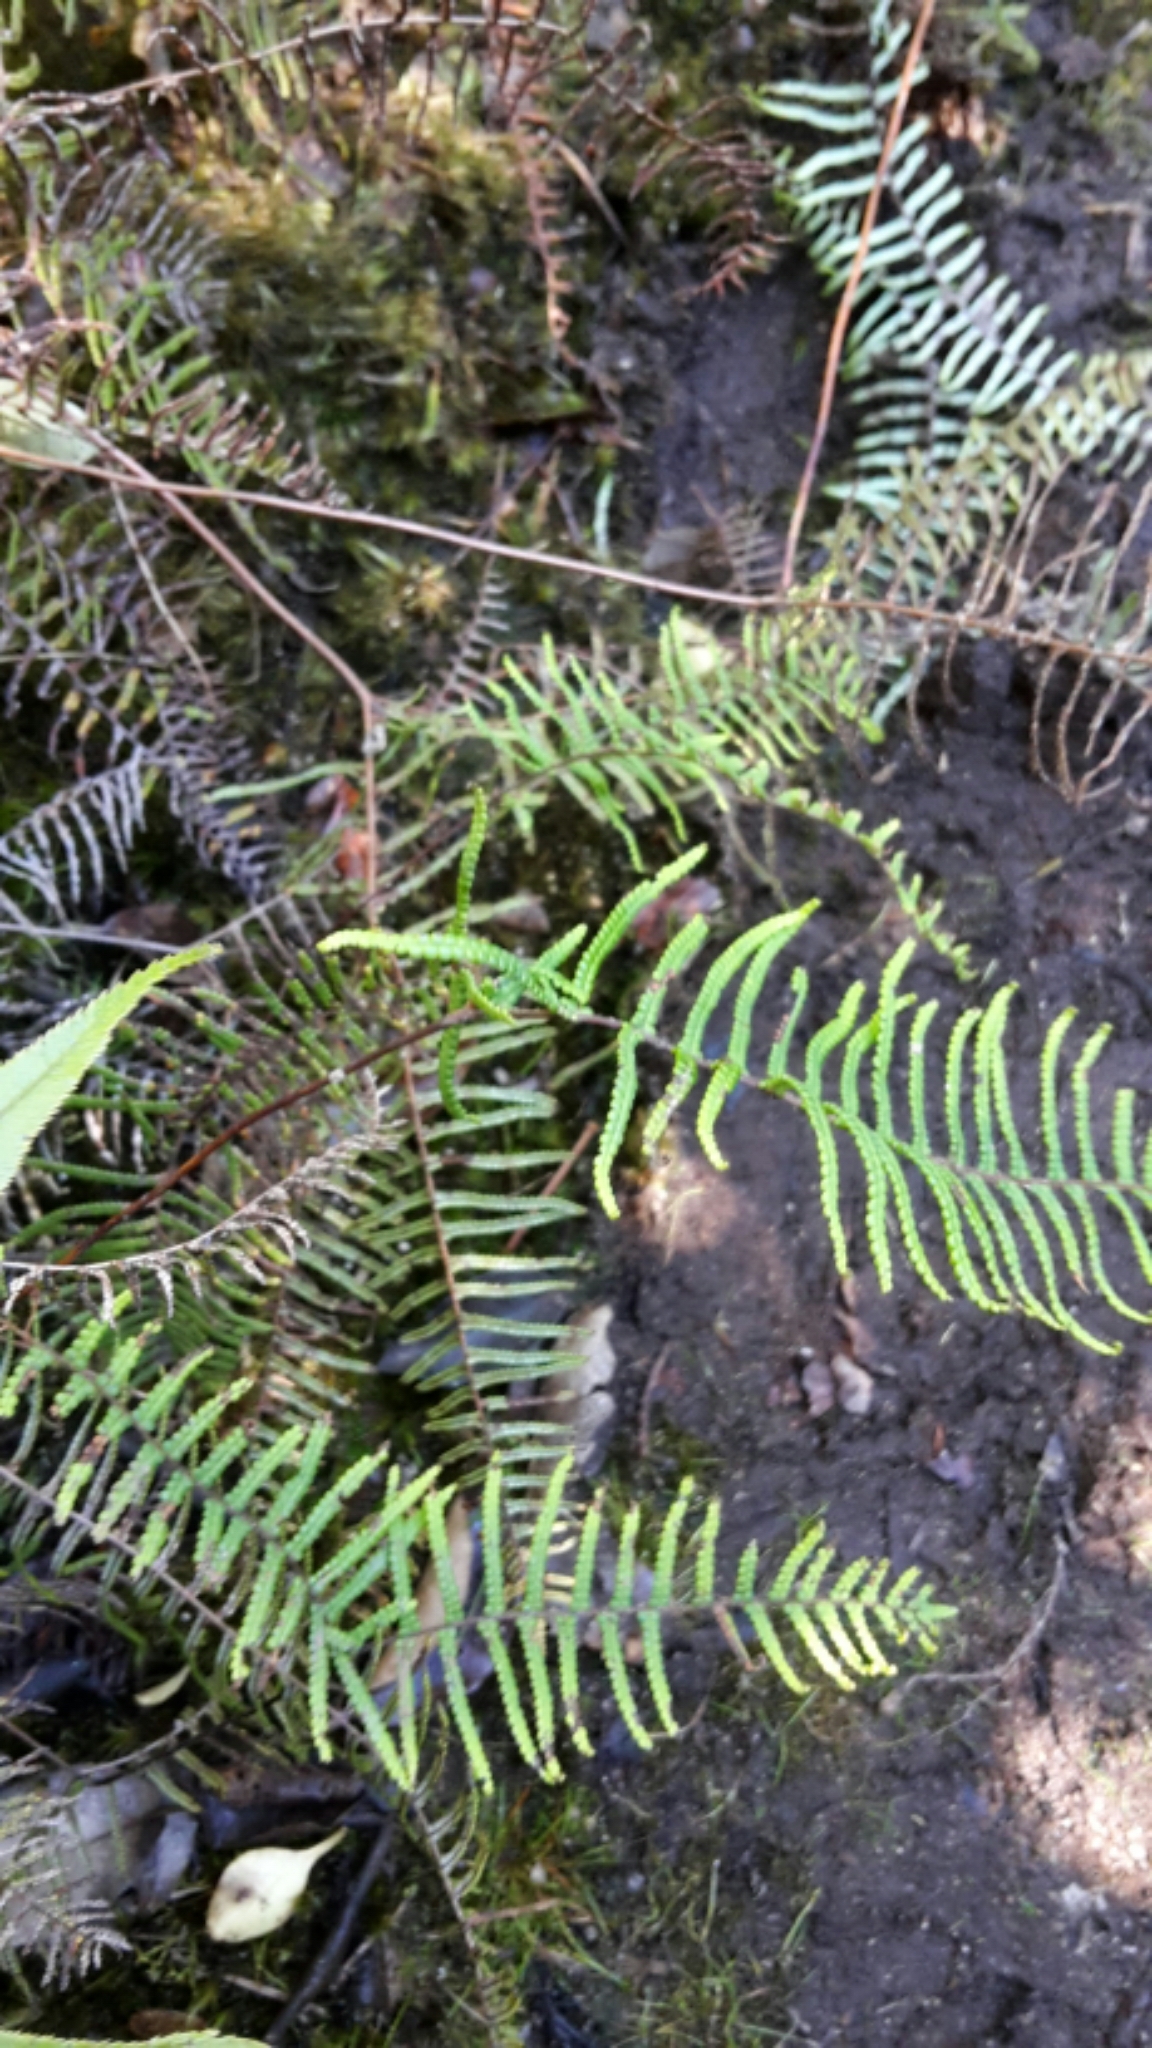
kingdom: Plantae
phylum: Tracheophyta
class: Polypodiopsida
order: Gleicheniales
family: Gleicheniaceae
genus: Gleichenia
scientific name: Gleichenia dicarpa
